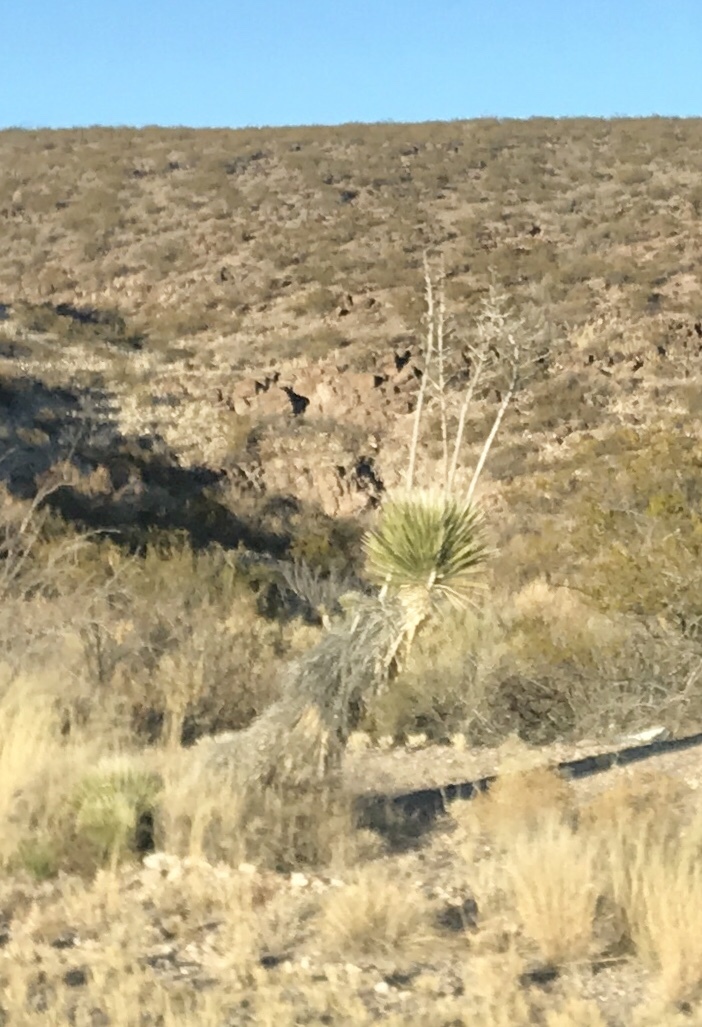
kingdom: Plantae
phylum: Tracheophyta
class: Liliopsida
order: Asparagales
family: Asparagaceae
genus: Yucca
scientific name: Yucca elata
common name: Palmella
